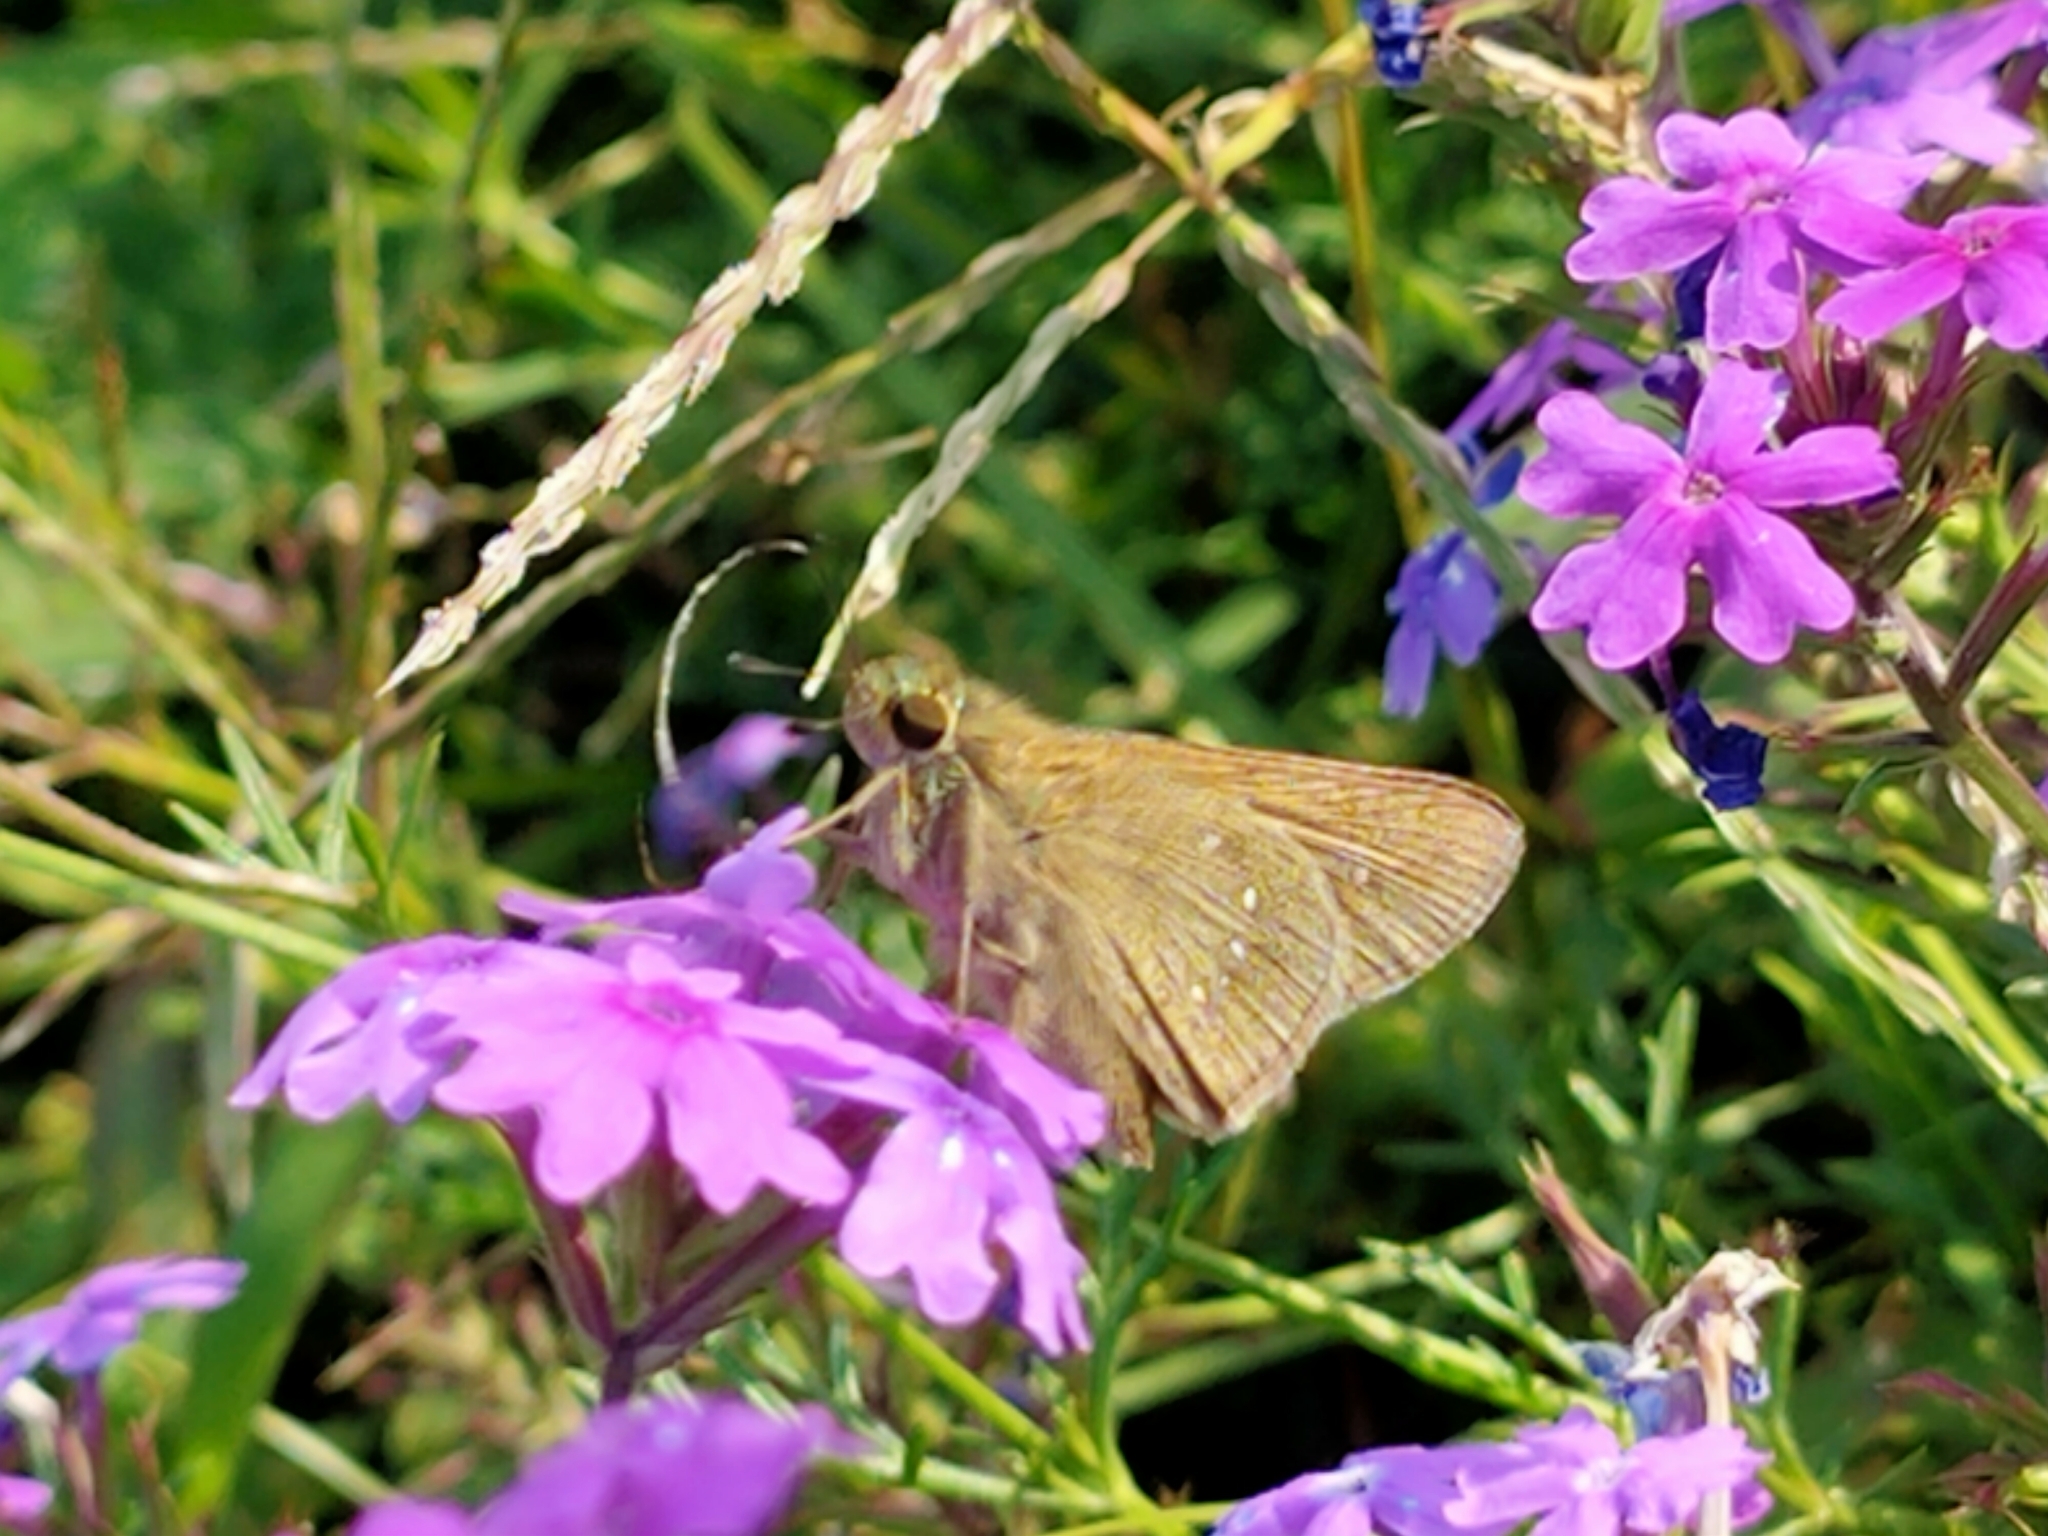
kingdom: Animalia
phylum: Arthropoda
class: Insecta
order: Lepidoptera
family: Hesperiidae
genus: Pelopidas
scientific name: Pelopidas mathias
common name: Black-branded swift
